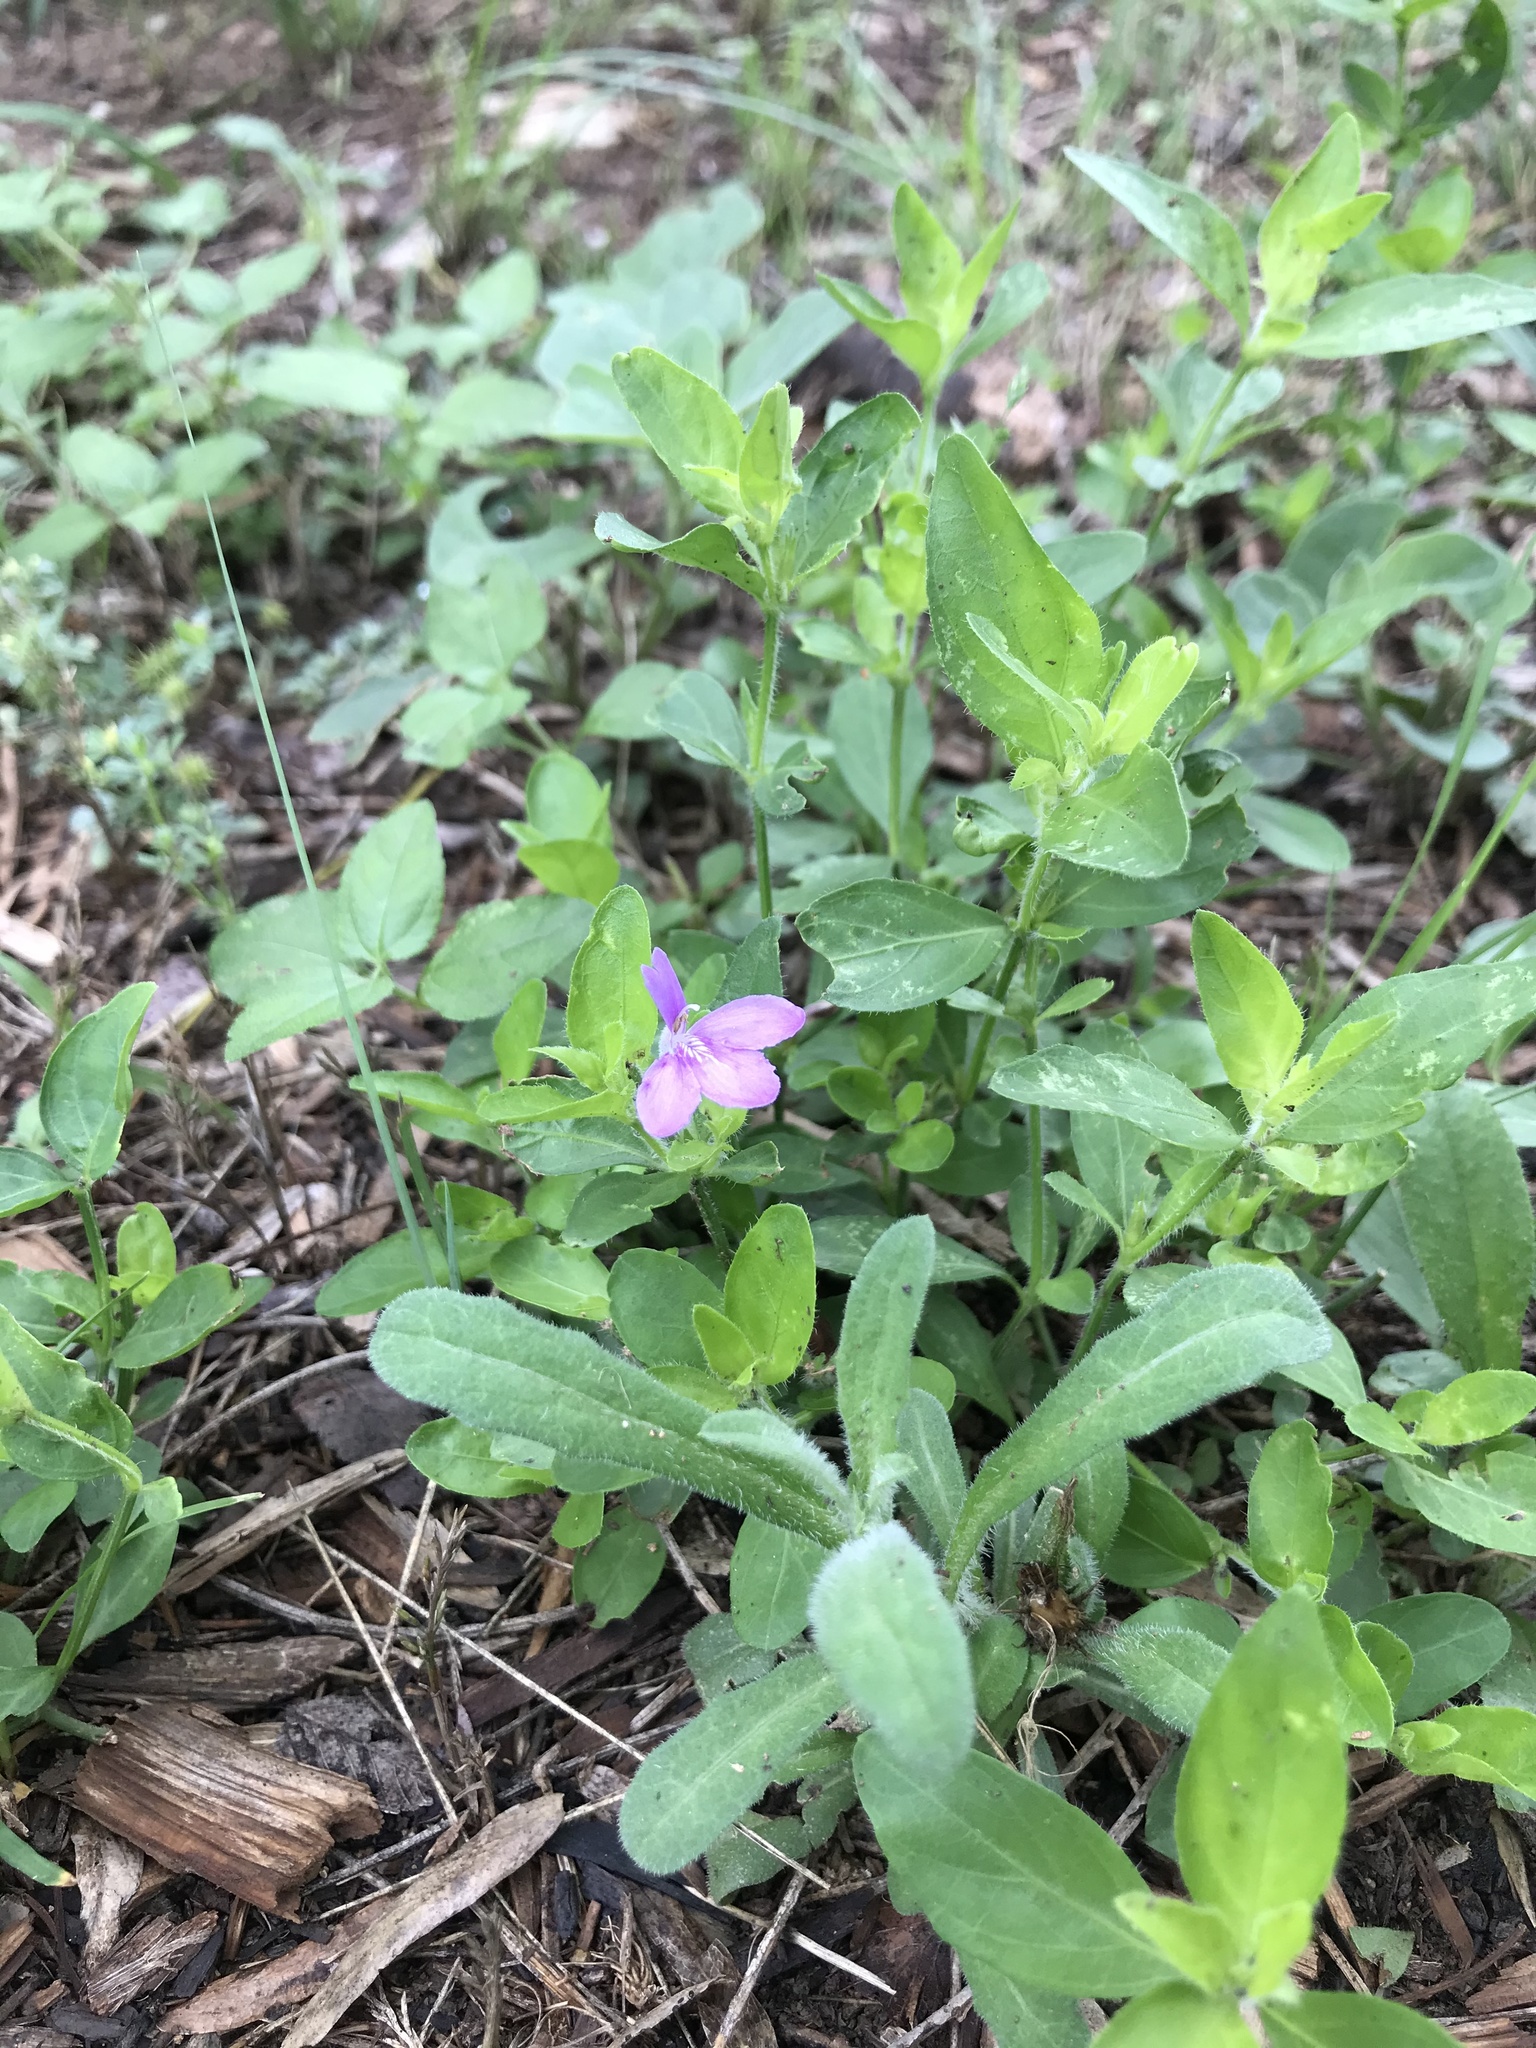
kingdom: Plantae
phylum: Tracheophyta
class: Magnoliopsida
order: Lamiales
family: Acanthaceae
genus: Justicia
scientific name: Justicia pilosella
